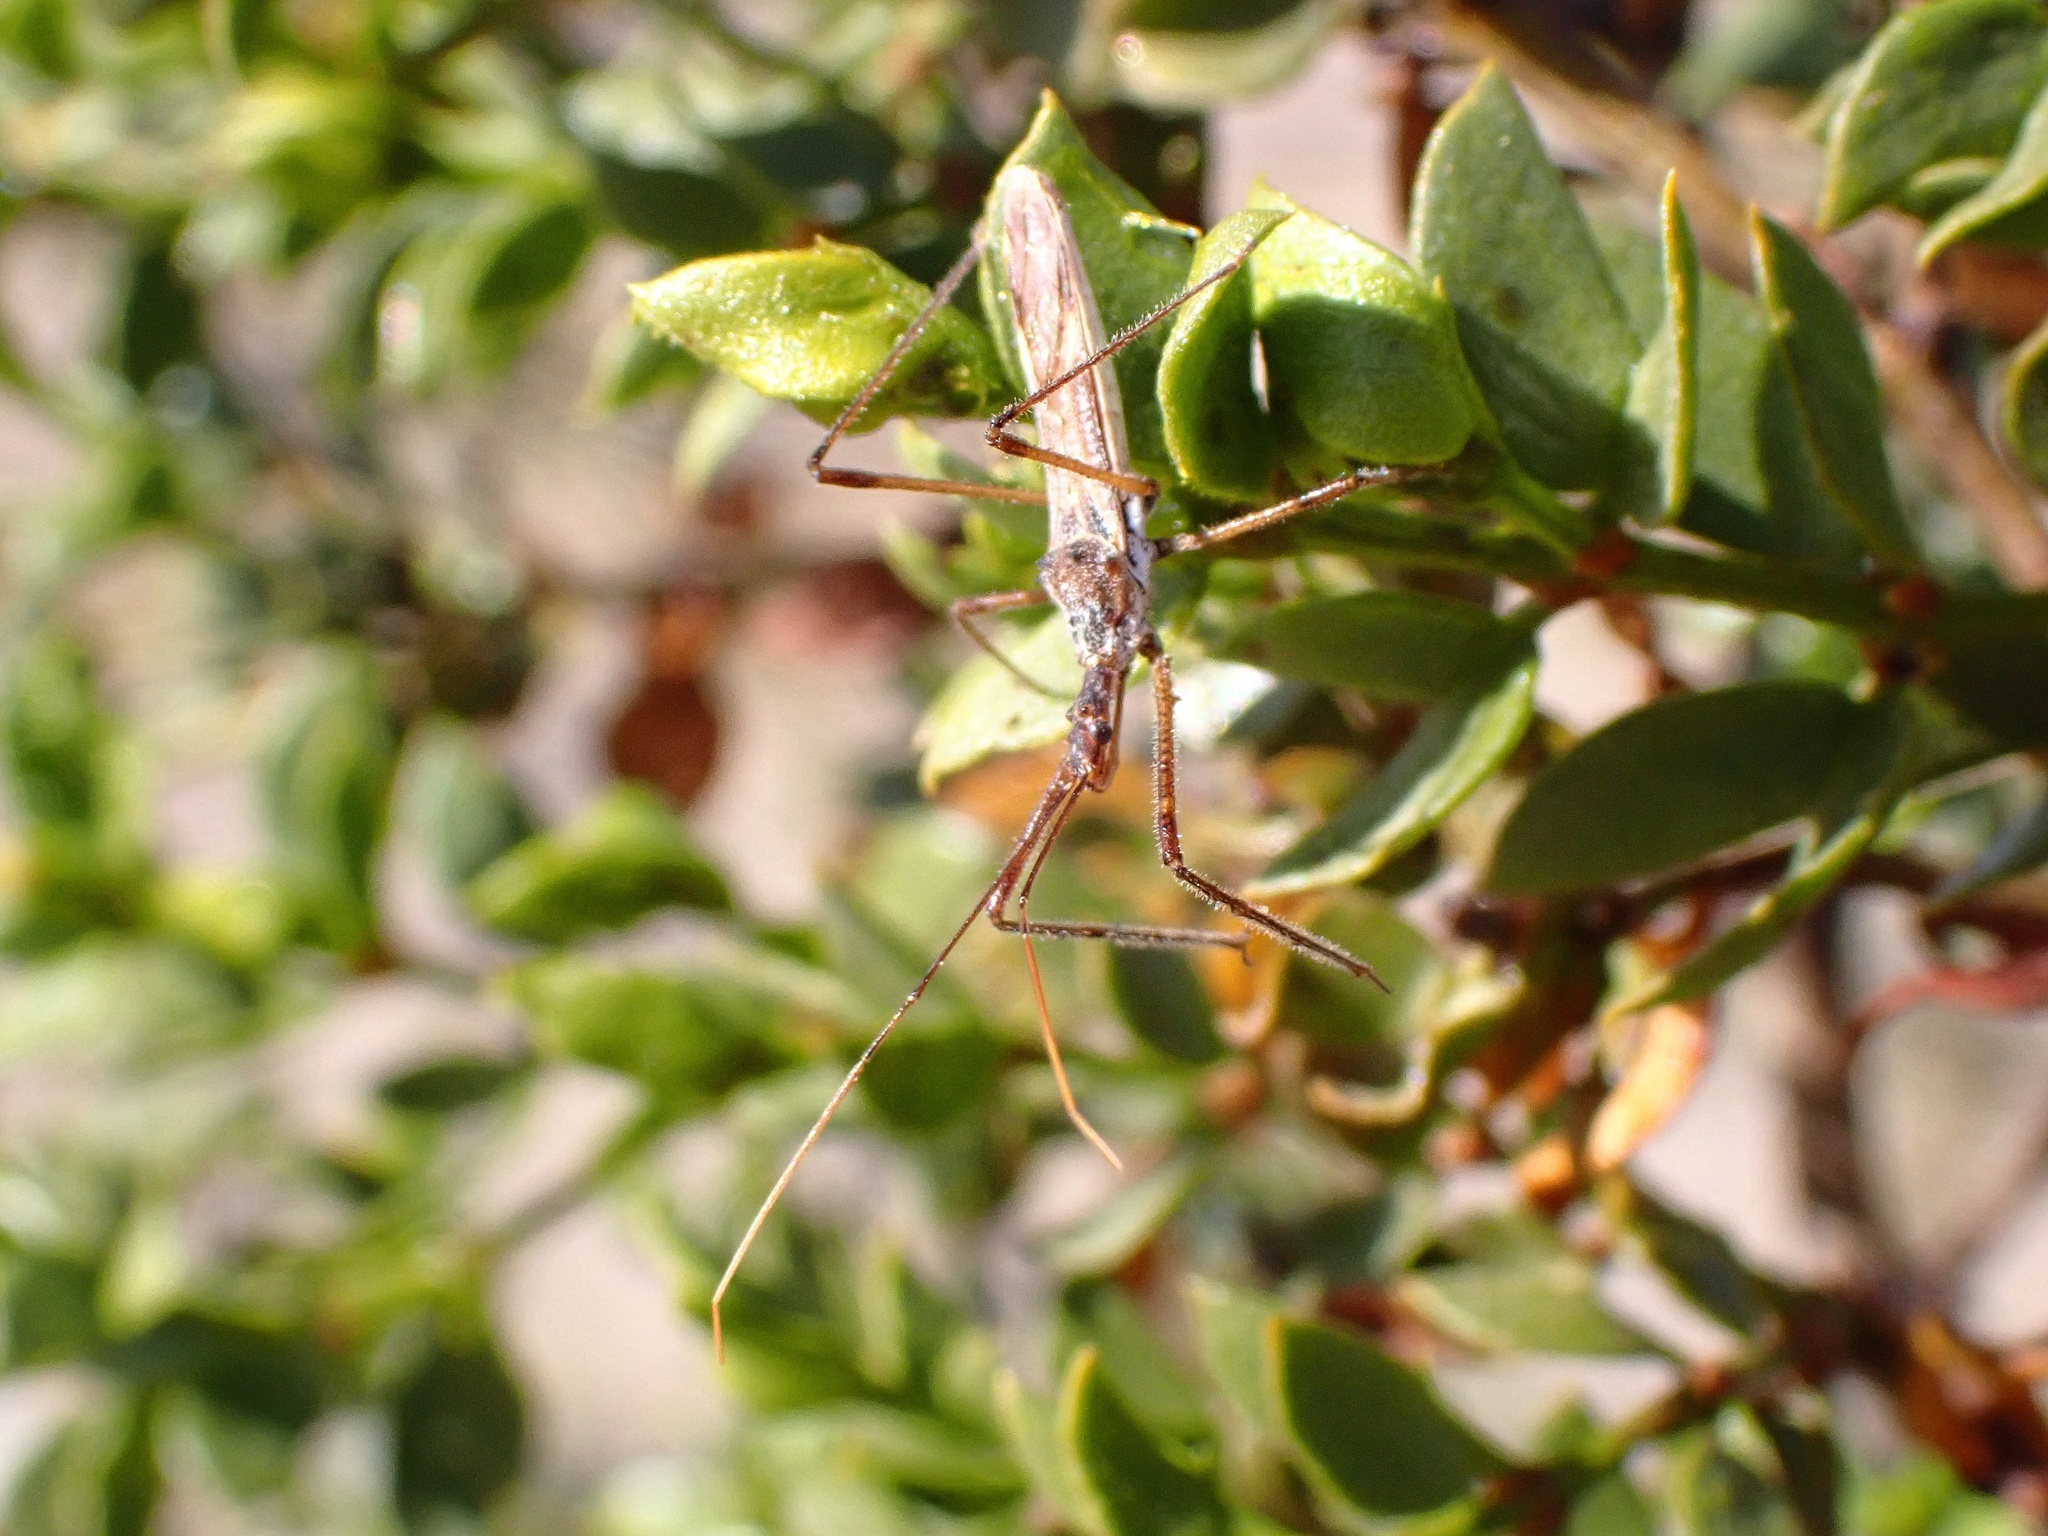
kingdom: Animalia
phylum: Arthropoda
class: Insecta
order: Hemiptera
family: Reduviidae
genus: Zelus
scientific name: Zelus tetracanthus
